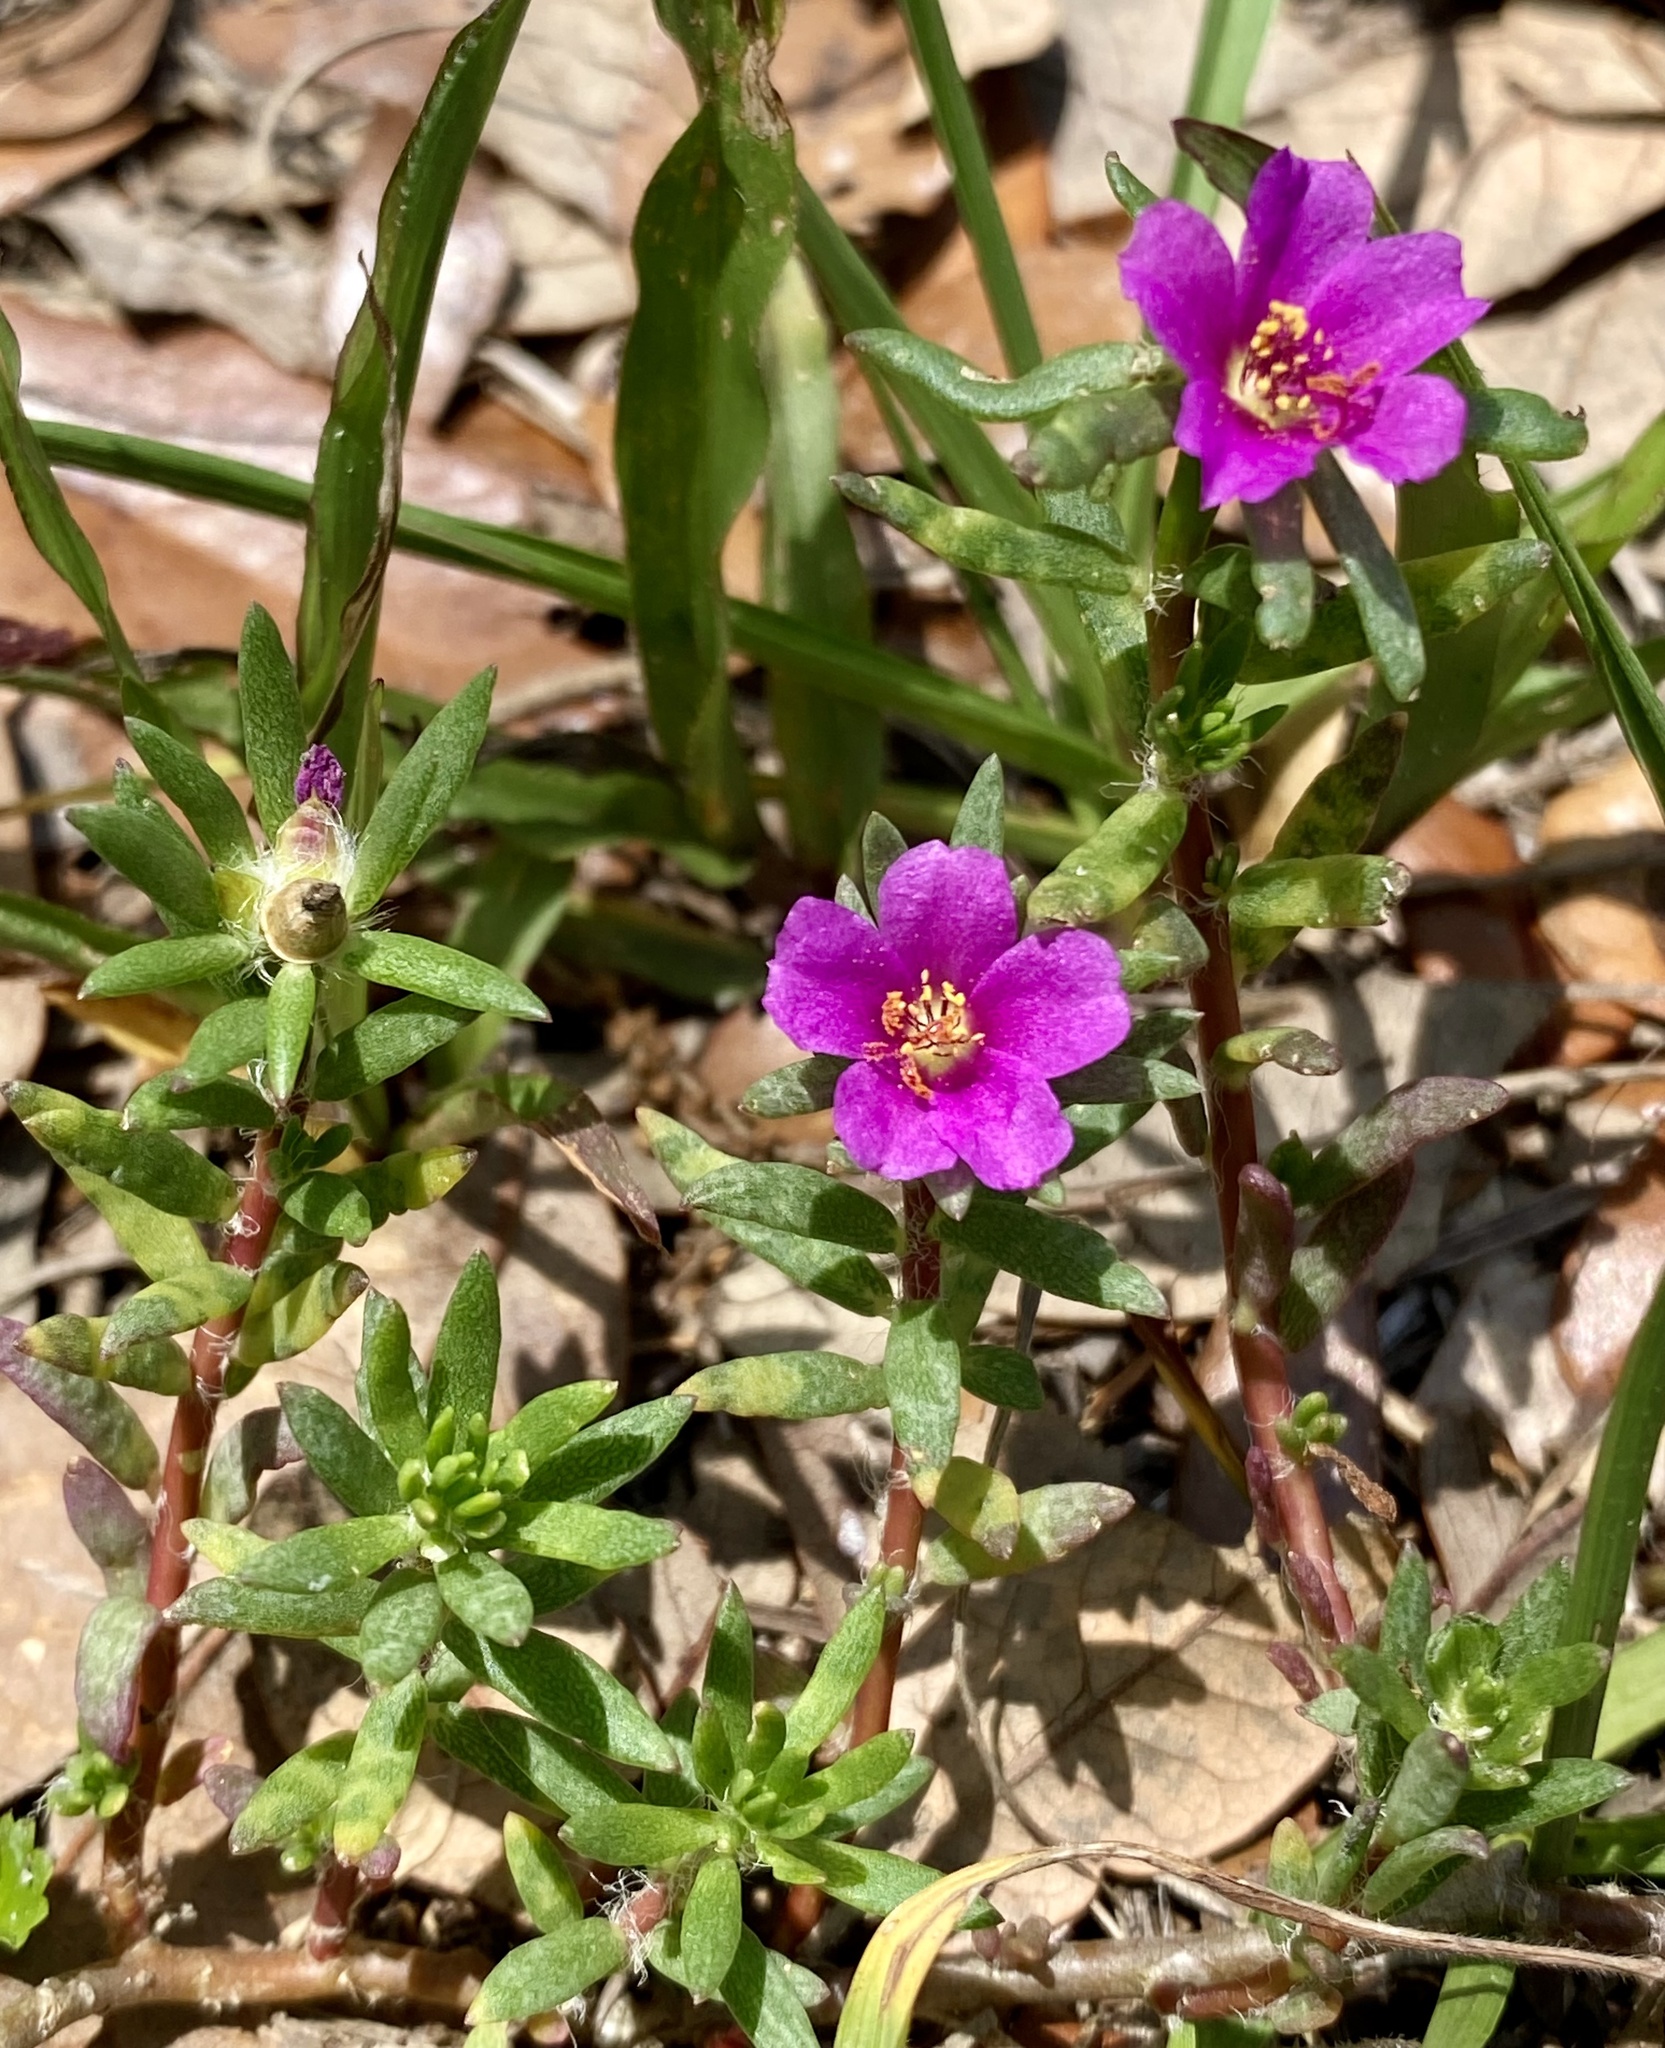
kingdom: Plantae
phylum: Tracheophyta
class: Magnoliopsida
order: Caryophyllales
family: Portulacaceae
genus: Portulaca
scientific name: Portulaca pilosa
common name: Kiss me quick
